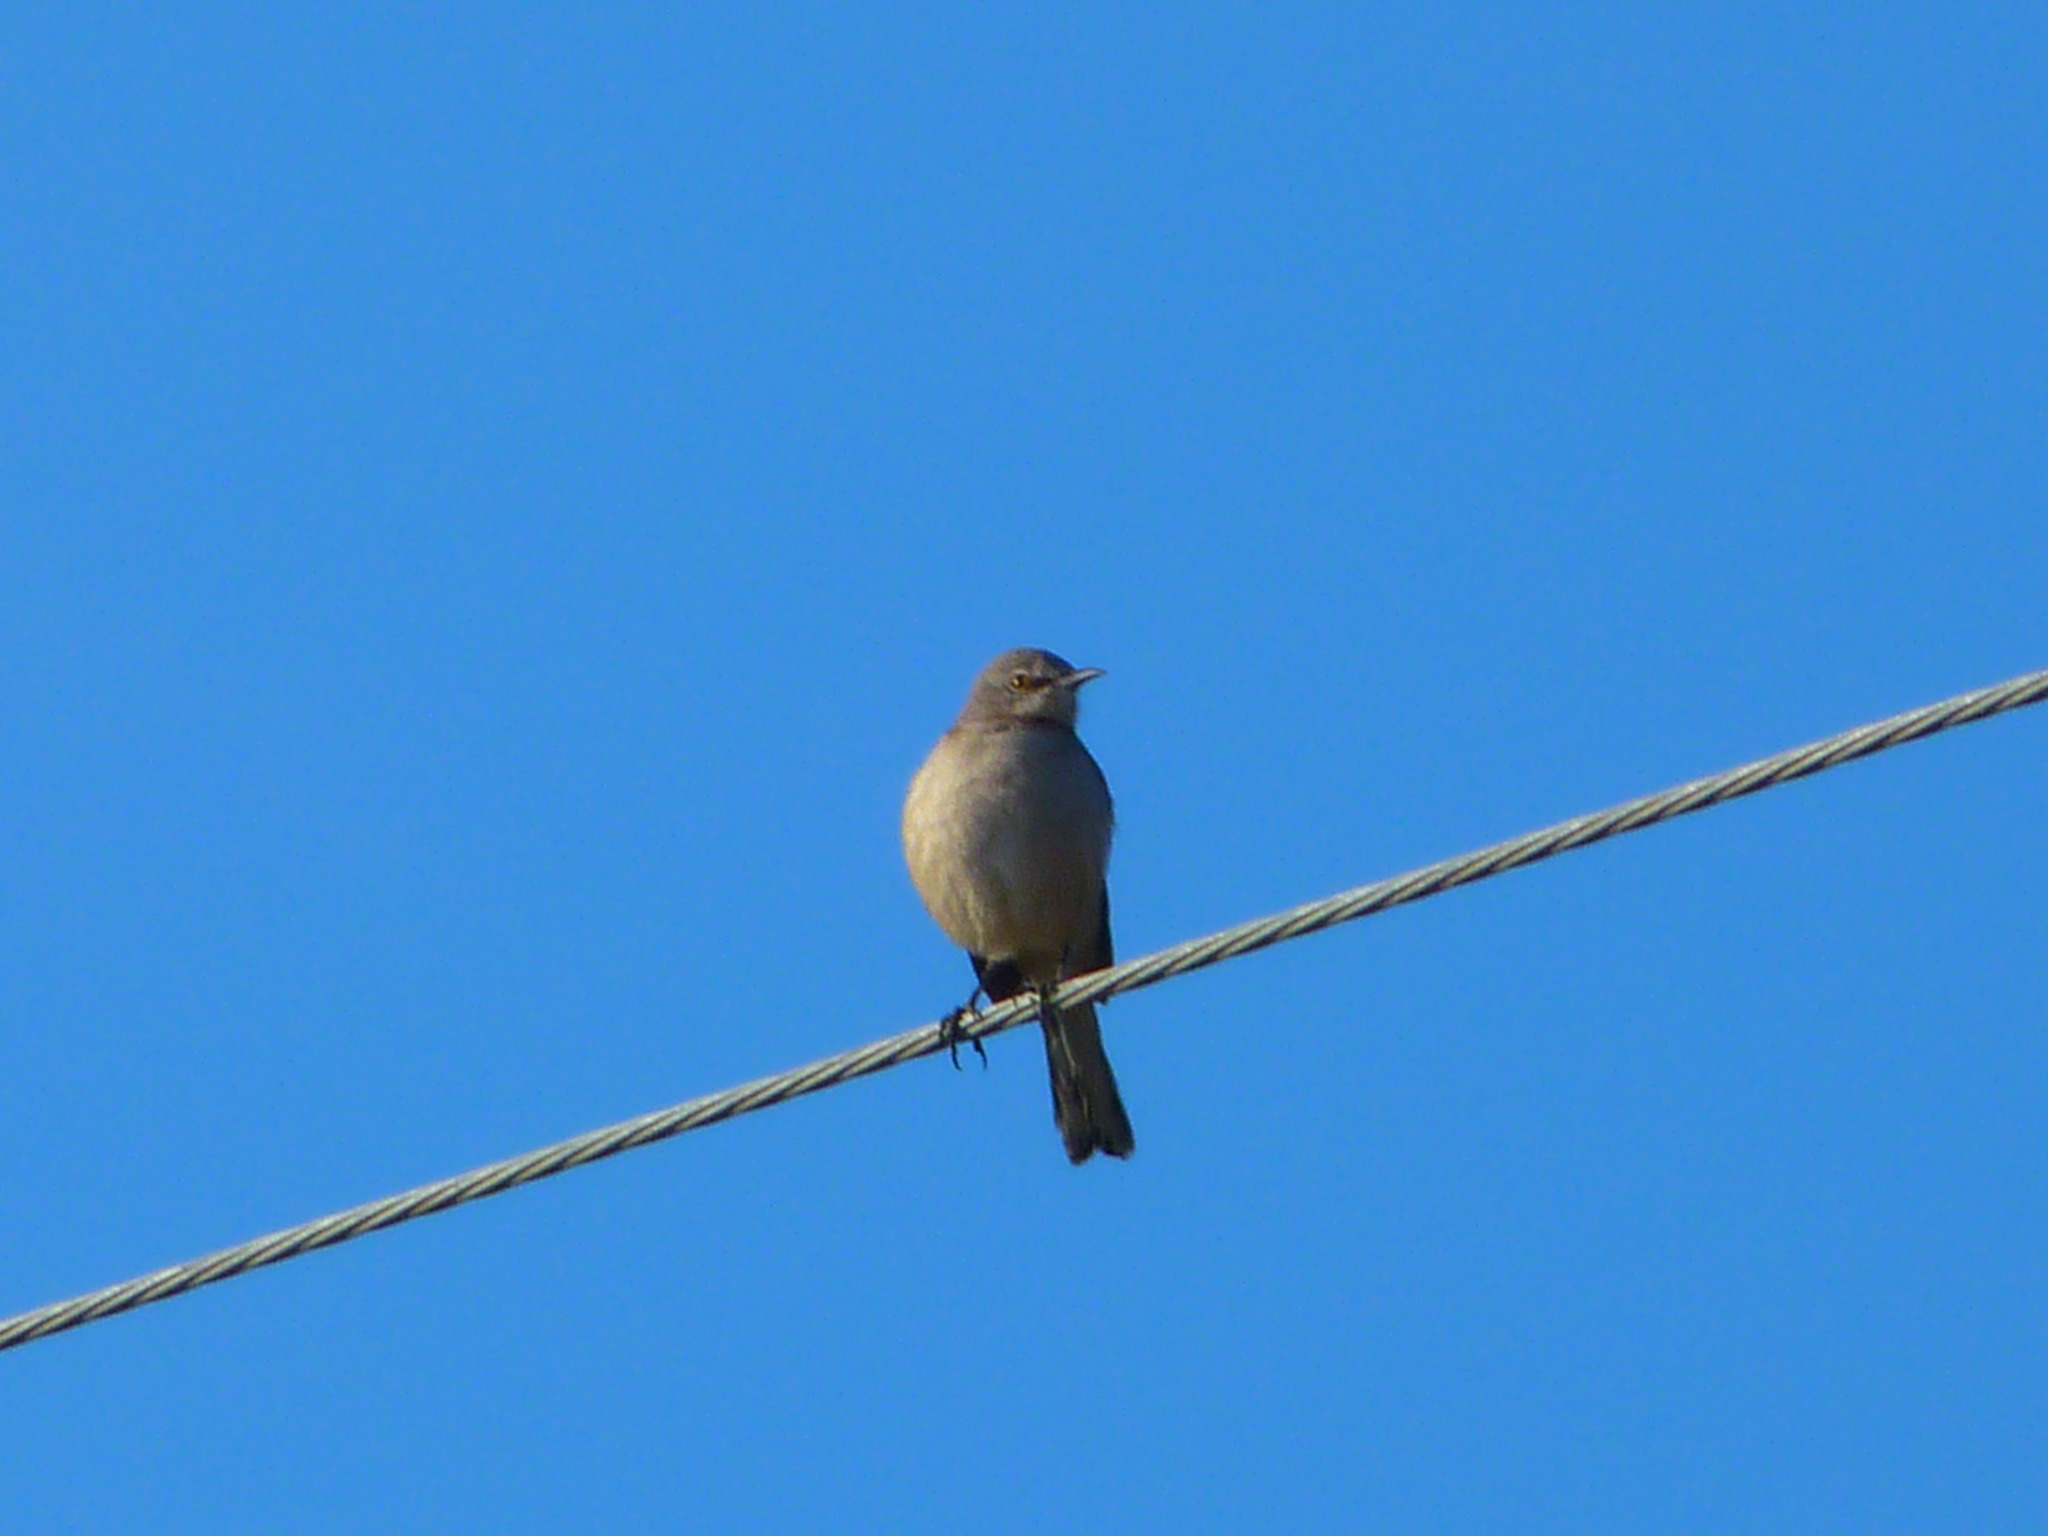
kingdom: Animalia
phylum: Chordata
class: Aves
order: Passeriformes
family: Mimidae
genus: Mimus
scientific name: Mimus polyglottos
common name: Northern mockingbird
